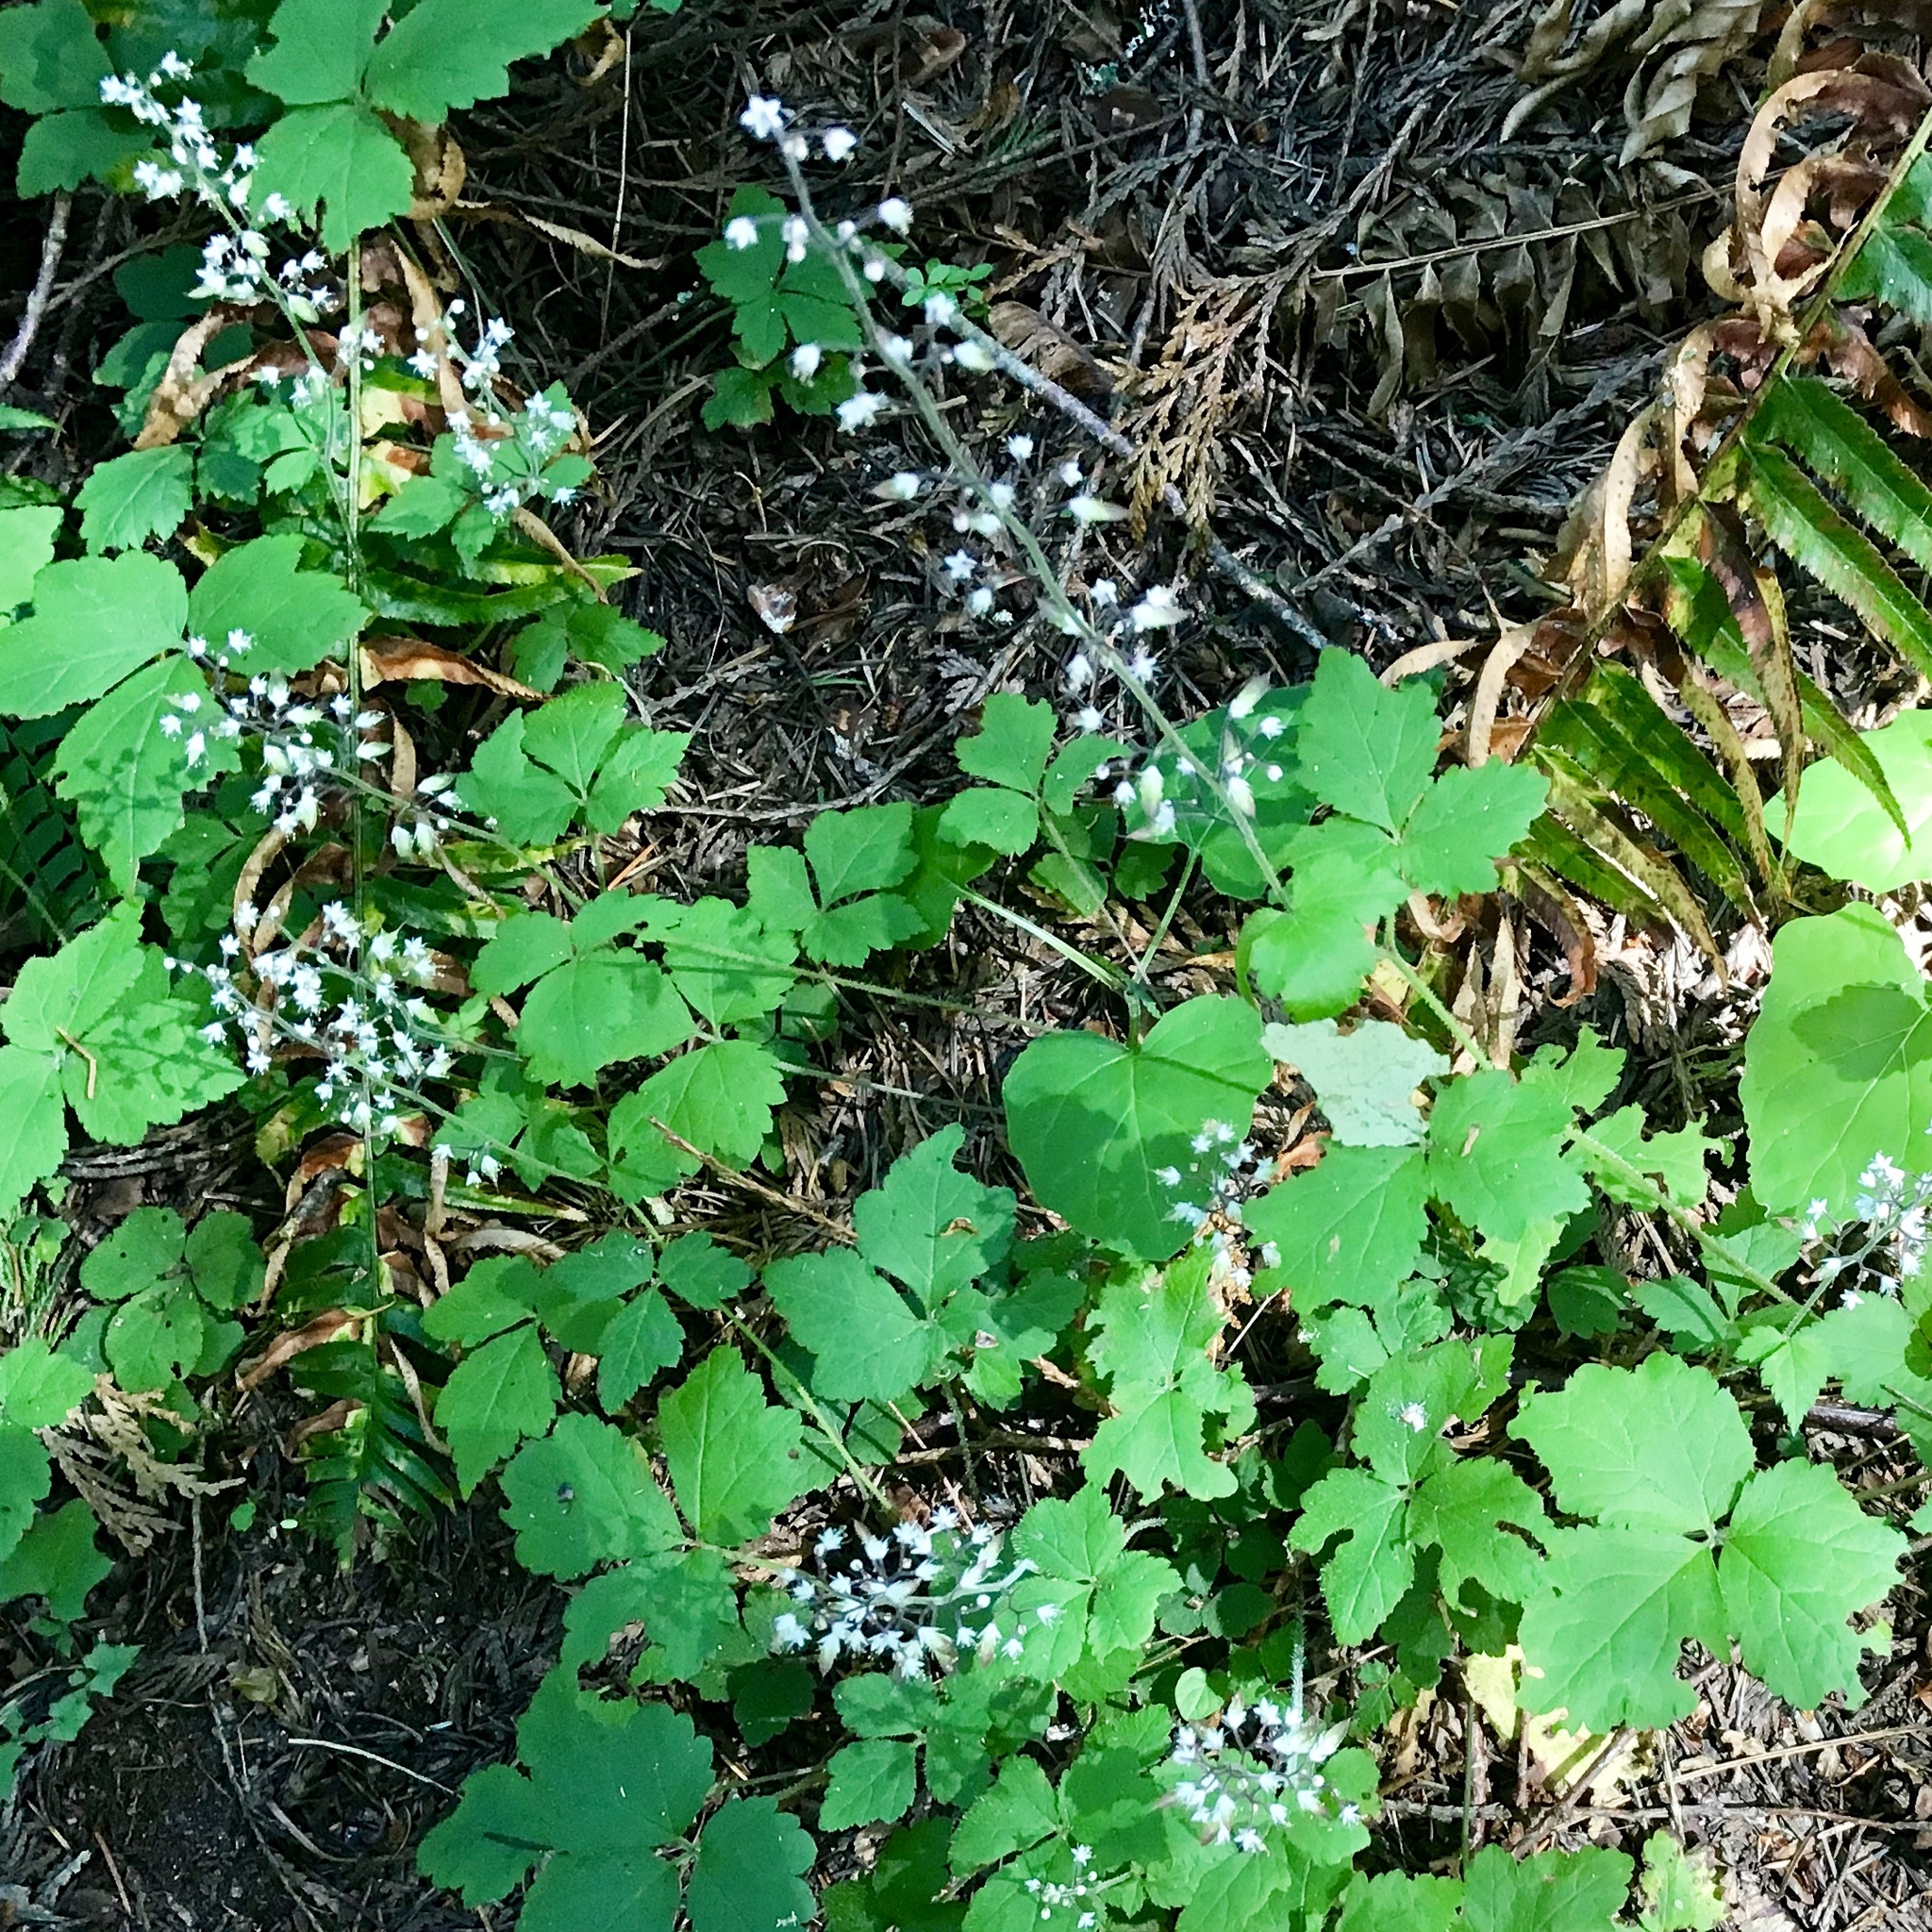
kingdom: Plantae
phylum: Tracheophyta
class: Magnoliopsida
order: Saxifragales
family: Saxifragaceae
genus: Tiarella
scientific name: Tiarella trifoliata
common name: Sugar-scoop
